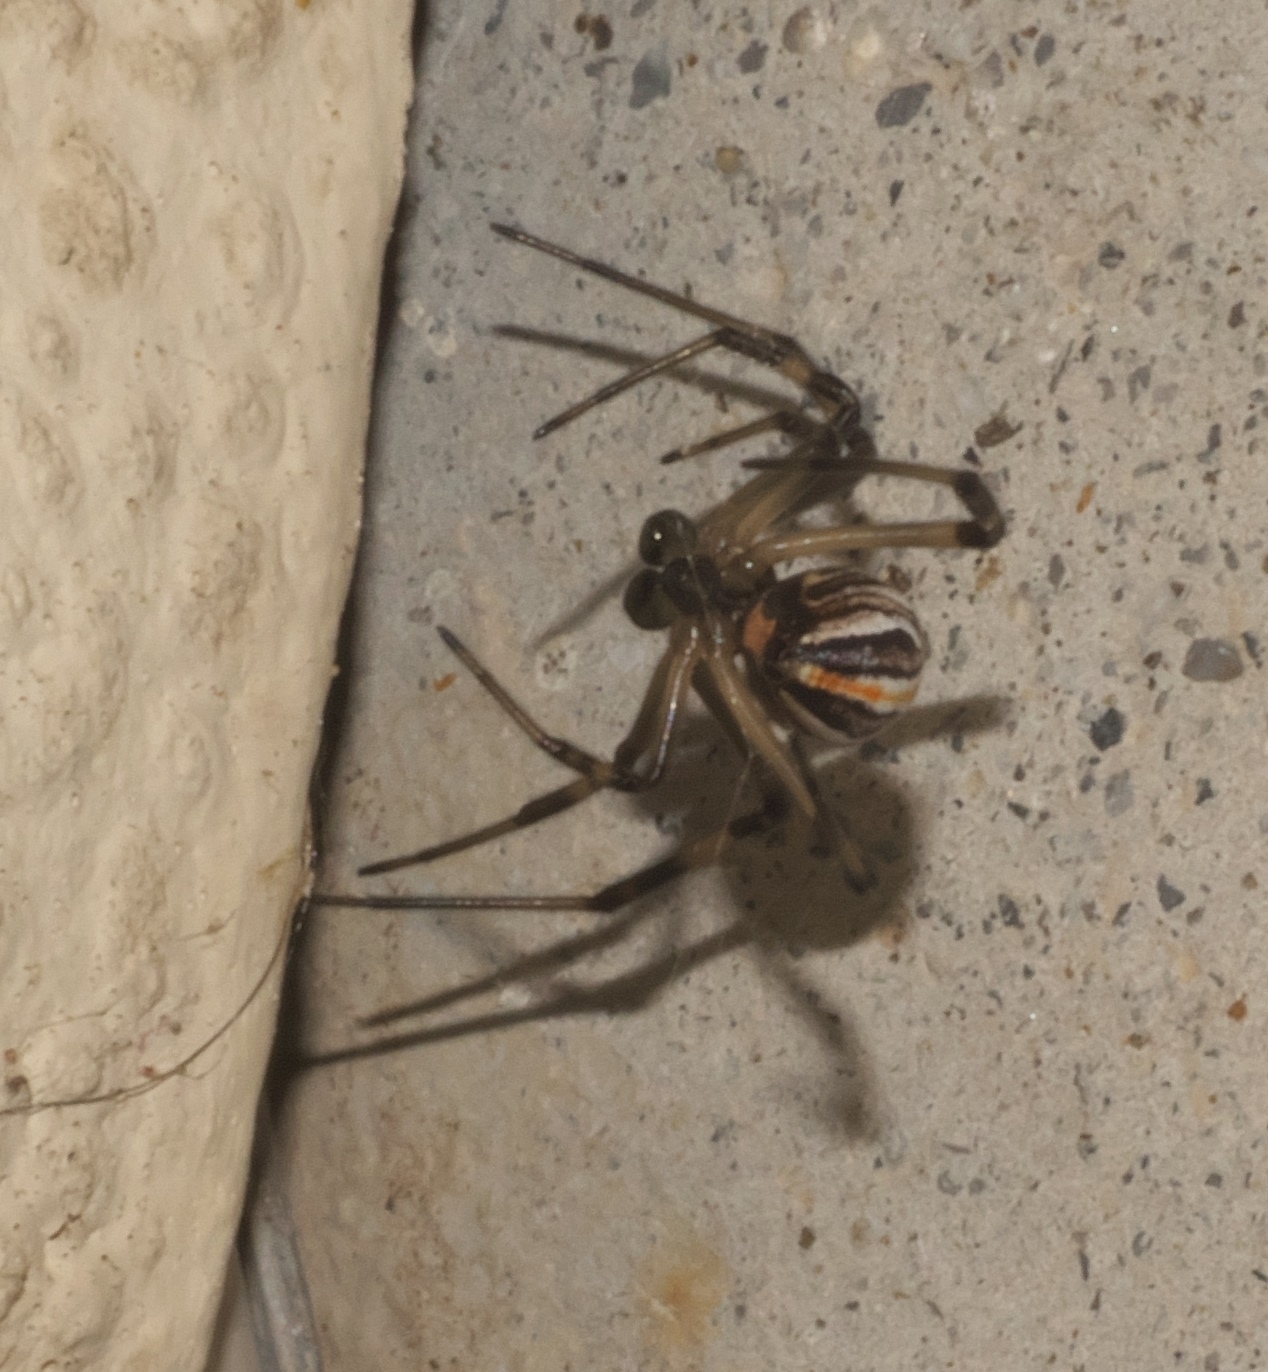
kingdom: Animalia
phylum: Arthropoda
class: Arachnida
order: Araneae
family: Theridiidae
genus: Latrodectus
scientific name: Latrodectus hesperus
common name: Western black widow
